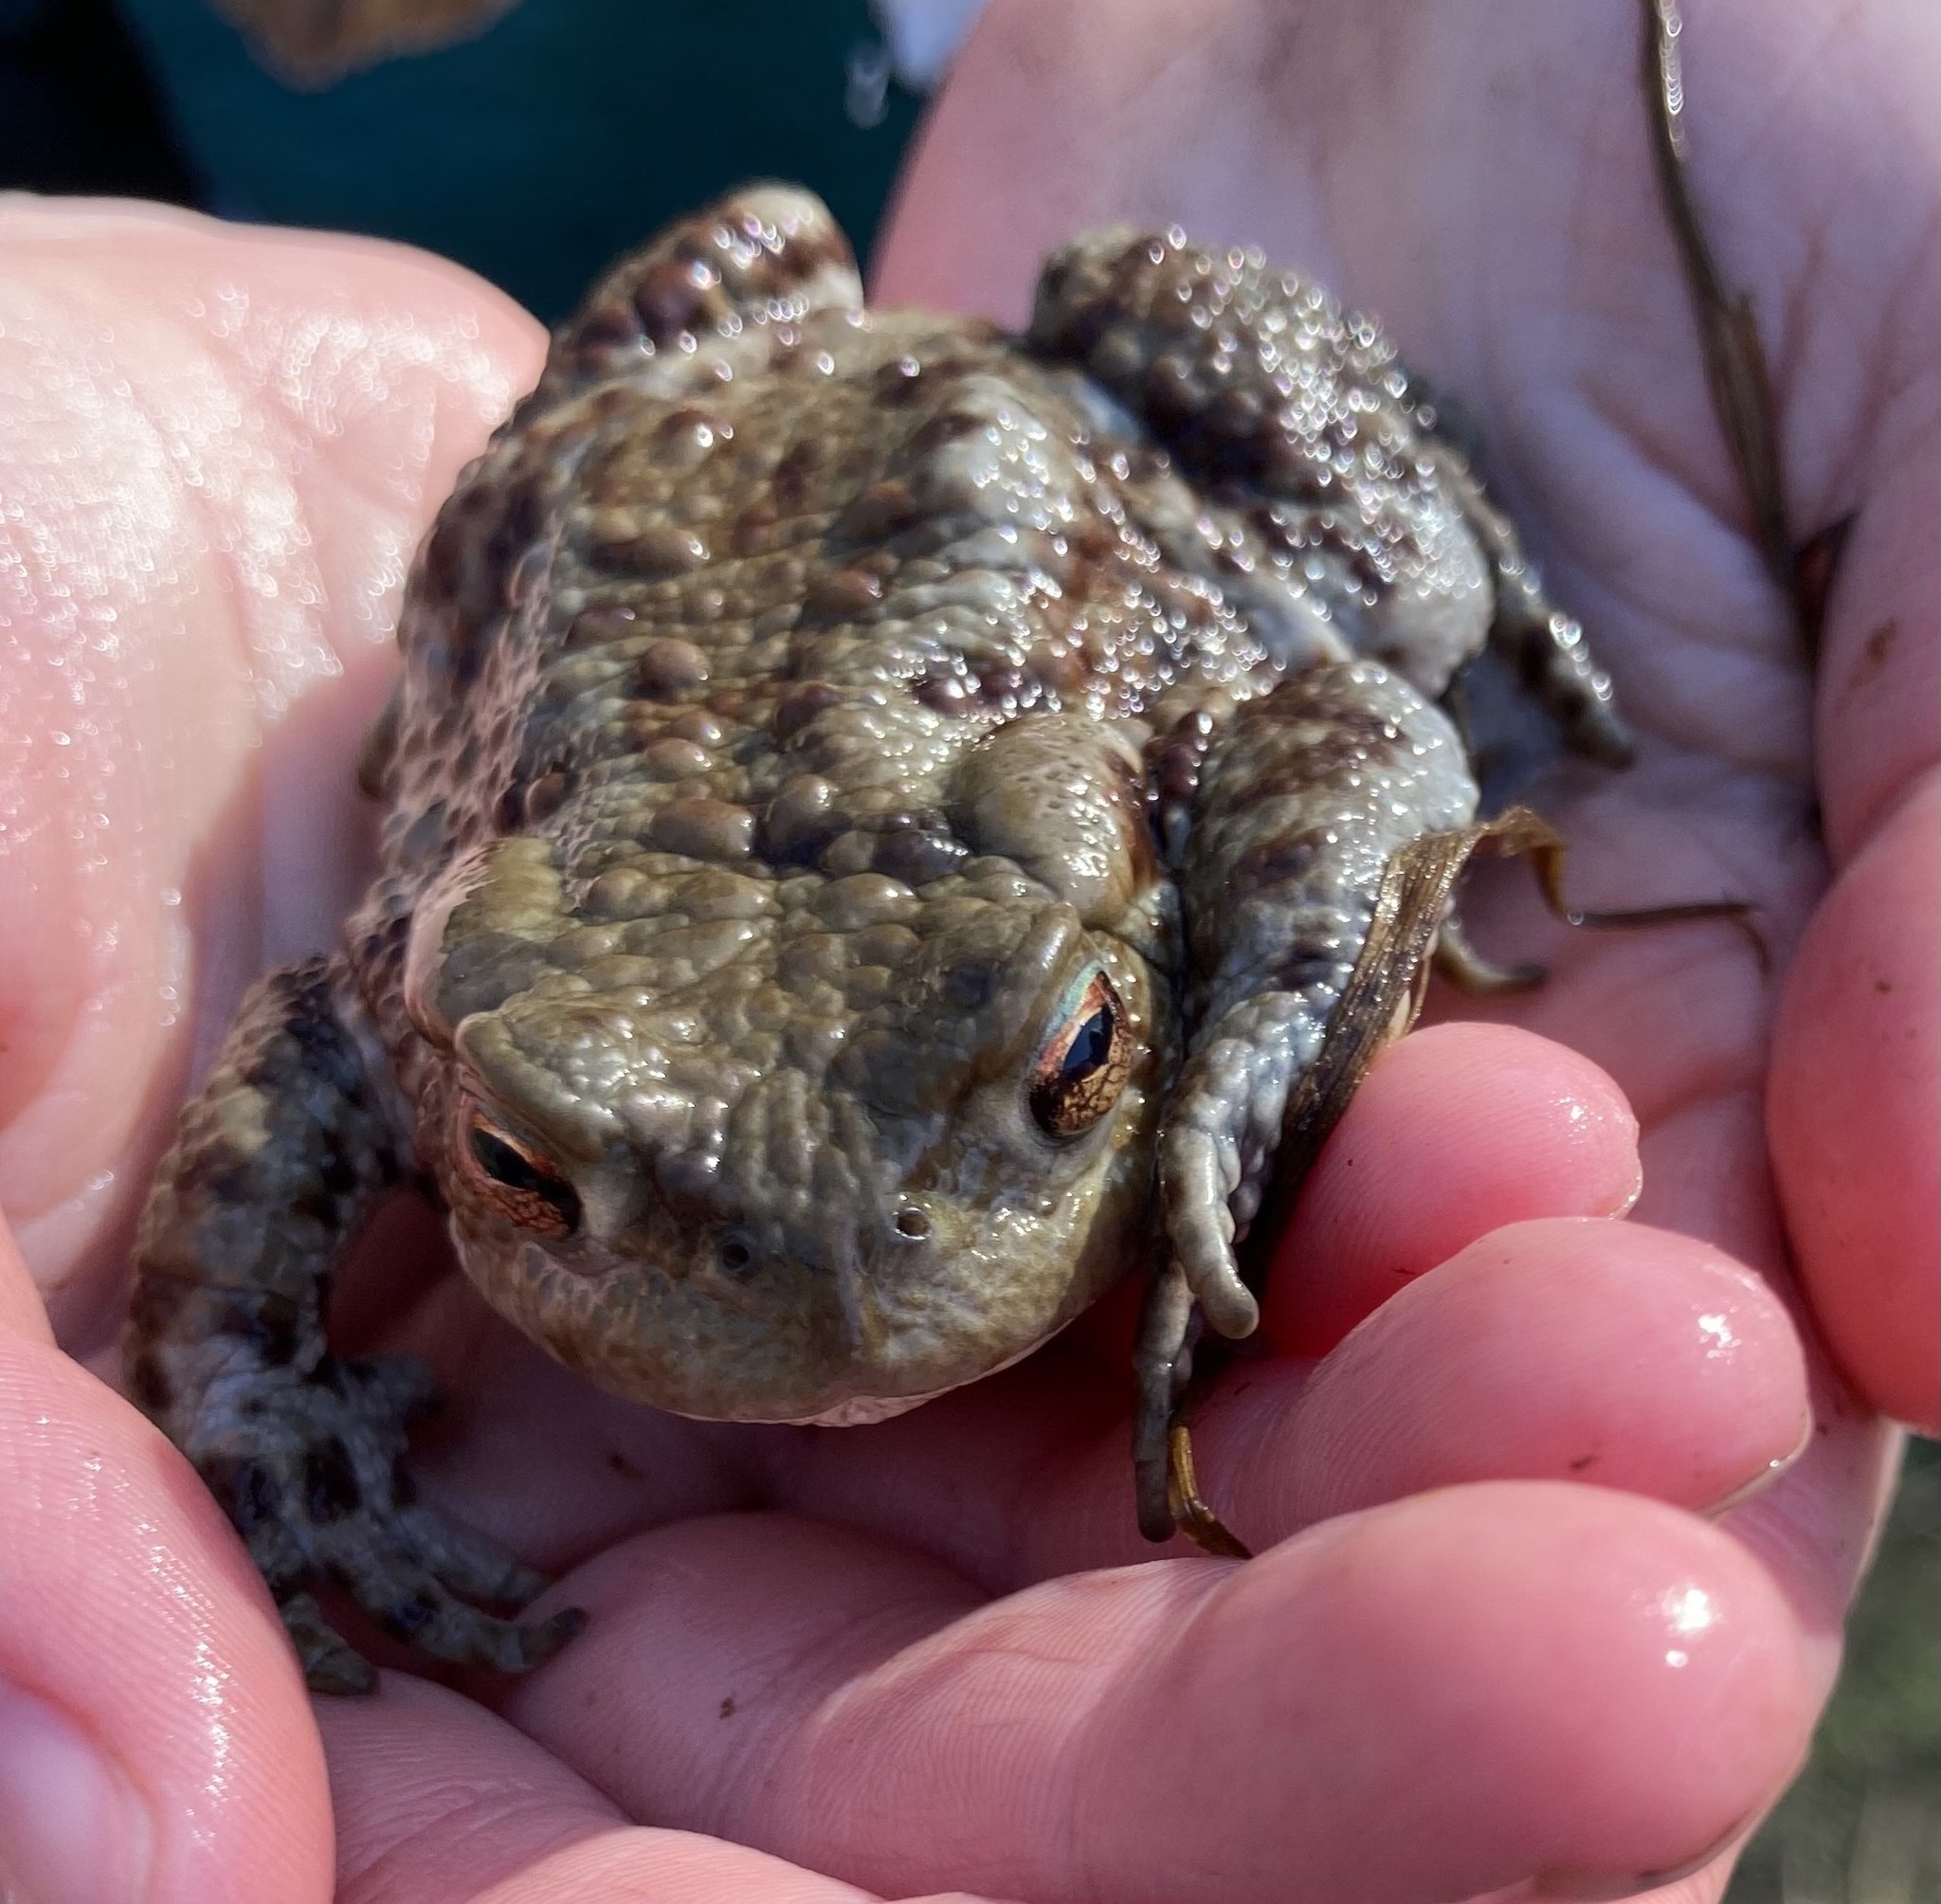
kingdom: Animalia
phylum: Chordata
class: Amphibia
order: Anura
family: Bufonidae
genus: Bufo
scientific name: Bufo bufo
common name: Common toad
